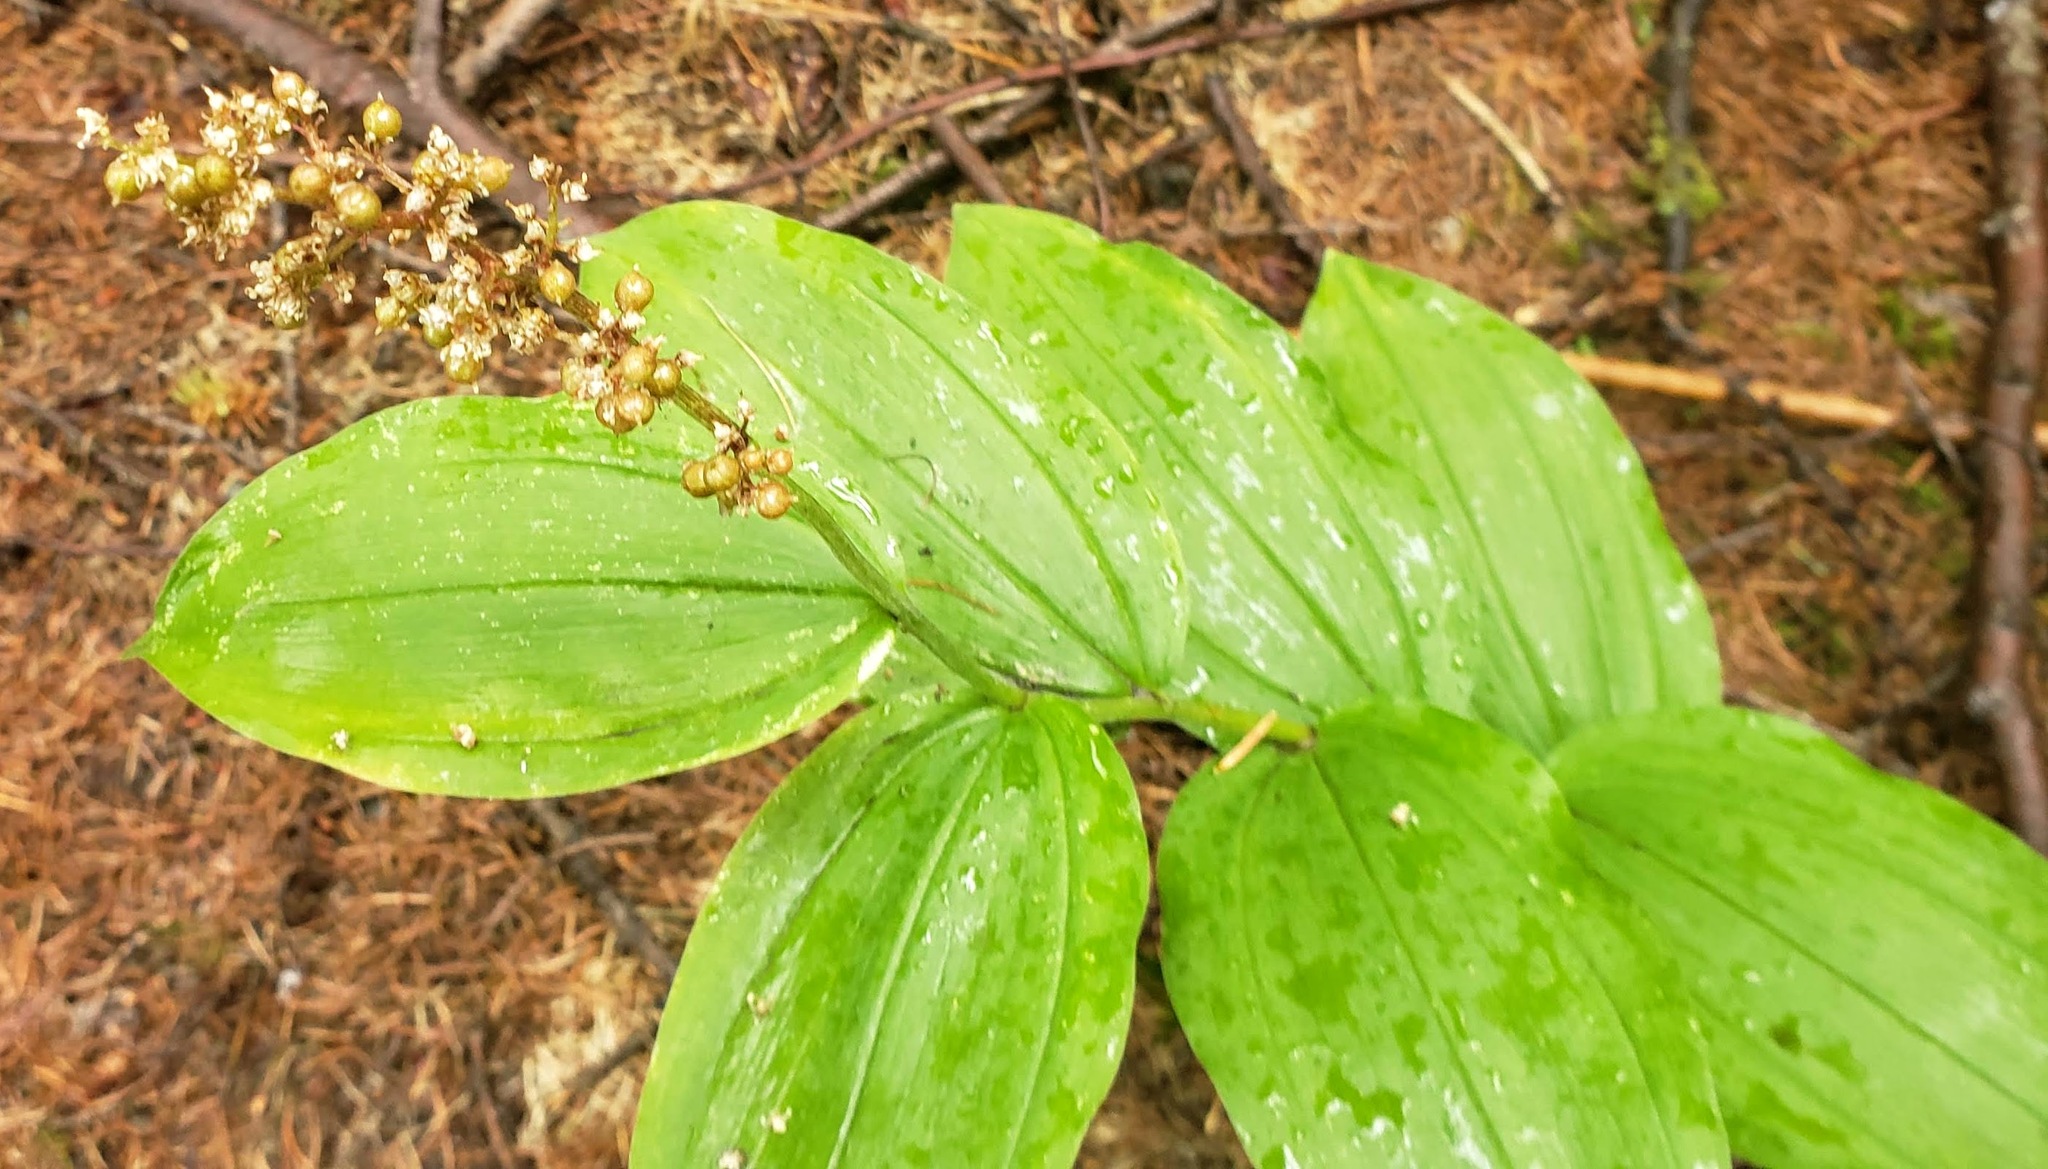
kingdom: Plantae
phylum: Tracheophyta
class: Liliopsida
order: Asparagales
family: Asparagaceae
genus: Maianthemum
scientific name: Maianthemum racemosum
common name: False spikenard
